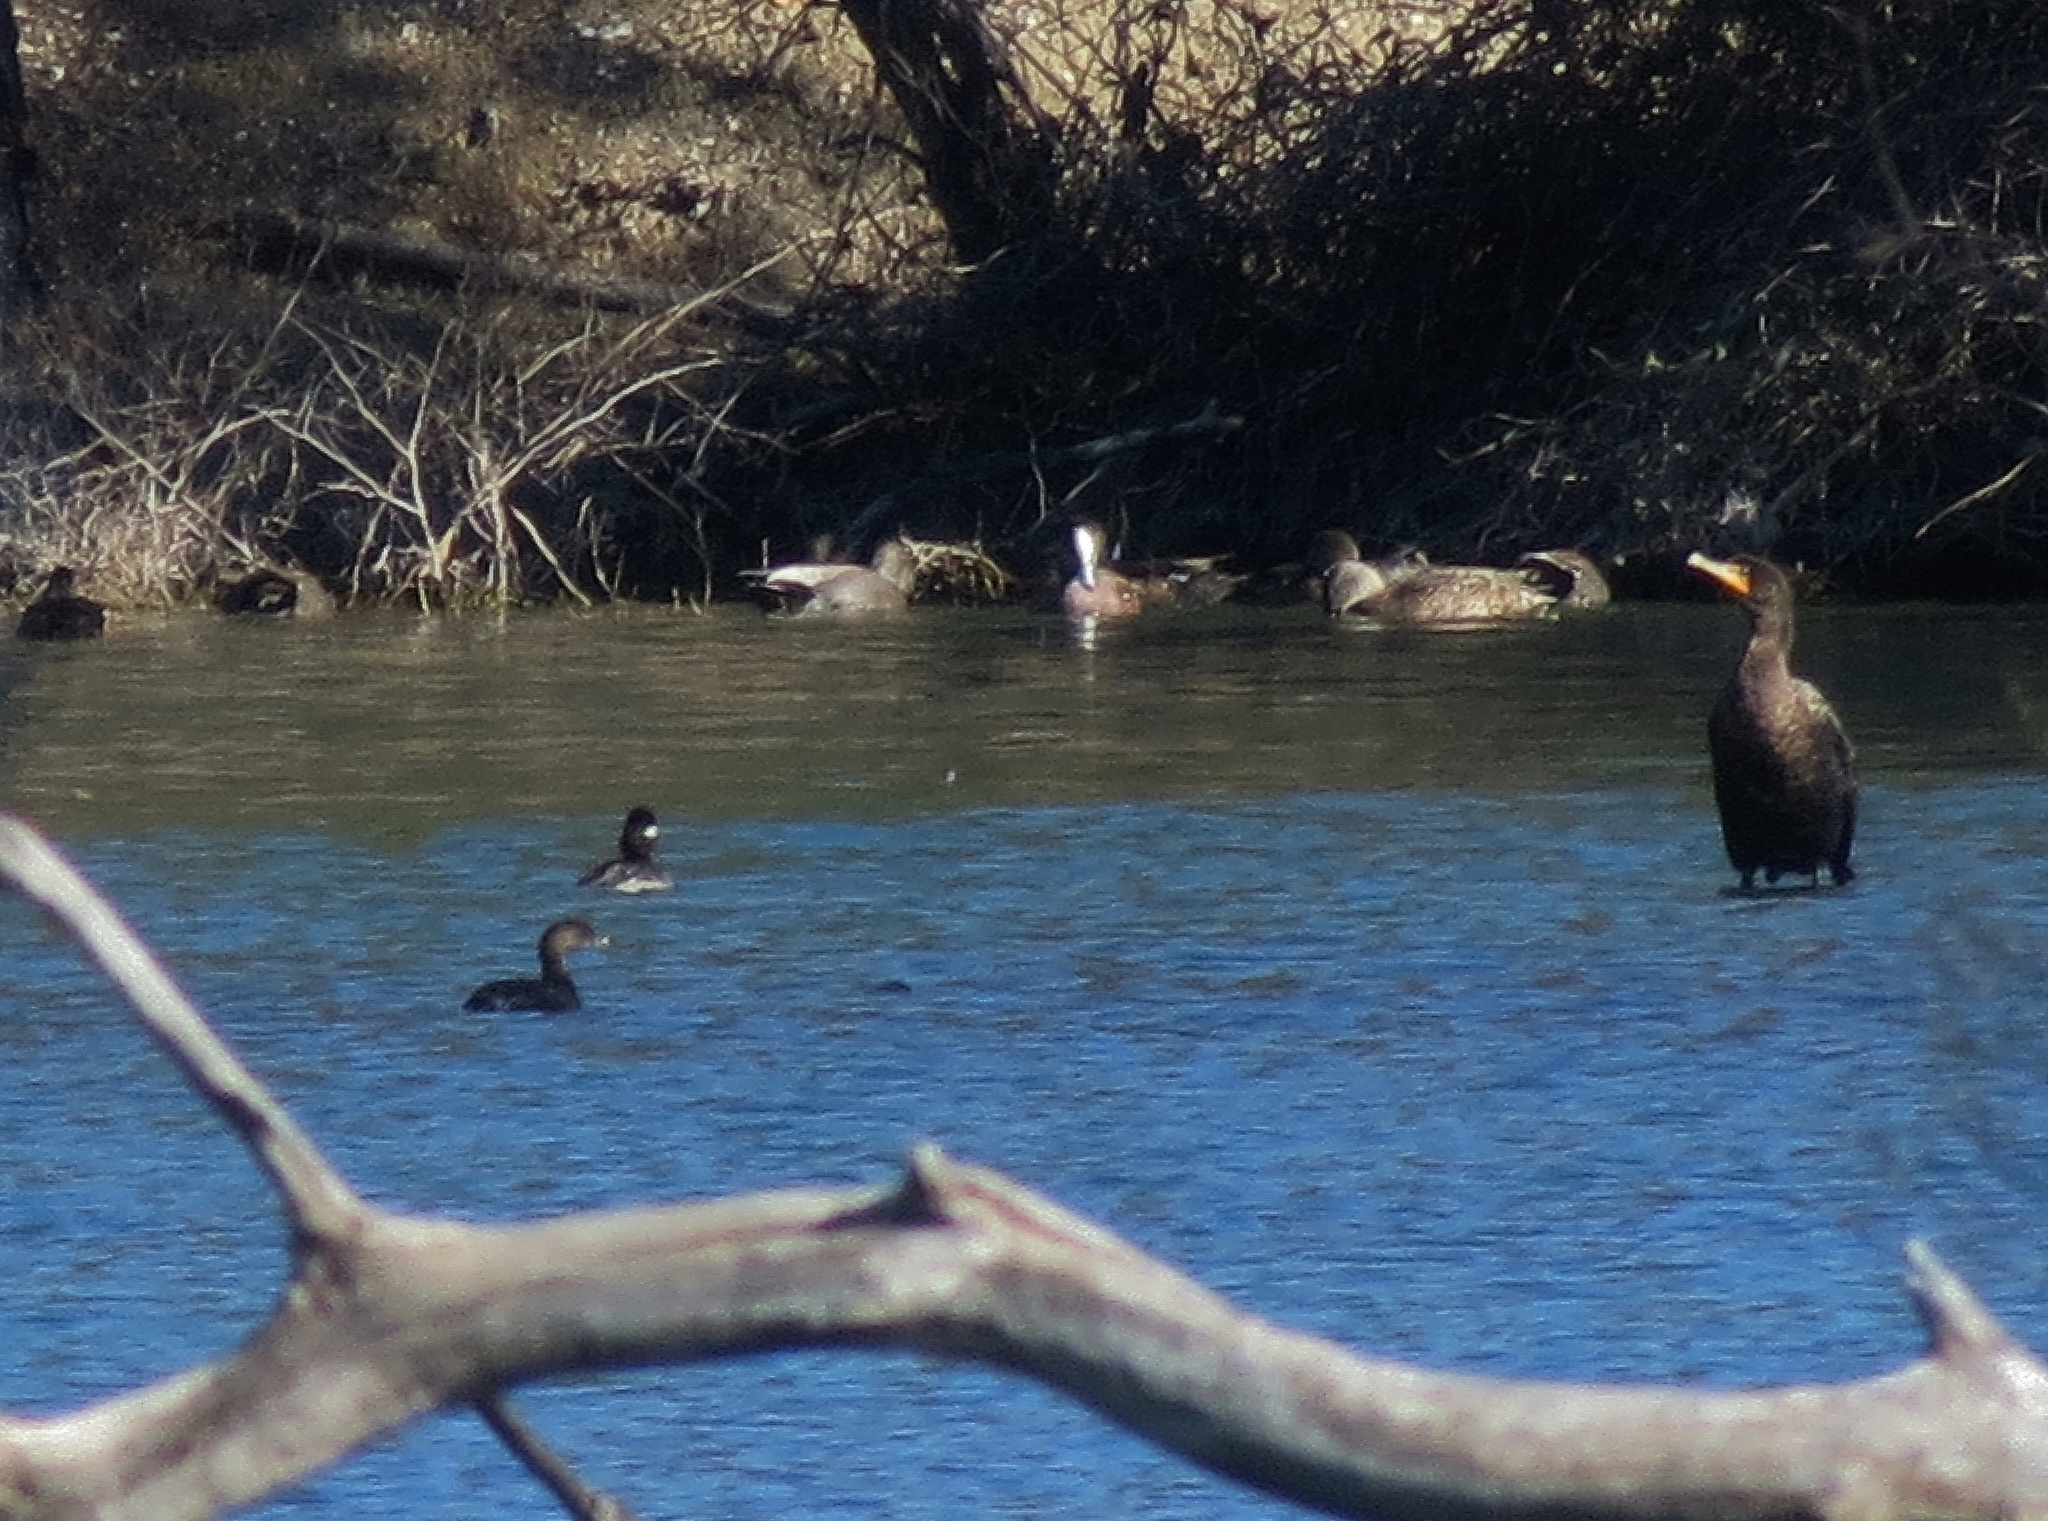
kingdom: Animalia
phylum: Chordata
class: Aves
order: Suliformes
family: Phalacrocoracidae
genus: Phalacrocorax
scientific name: Phalacrocorax auritus
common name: Double-crested cormorant
